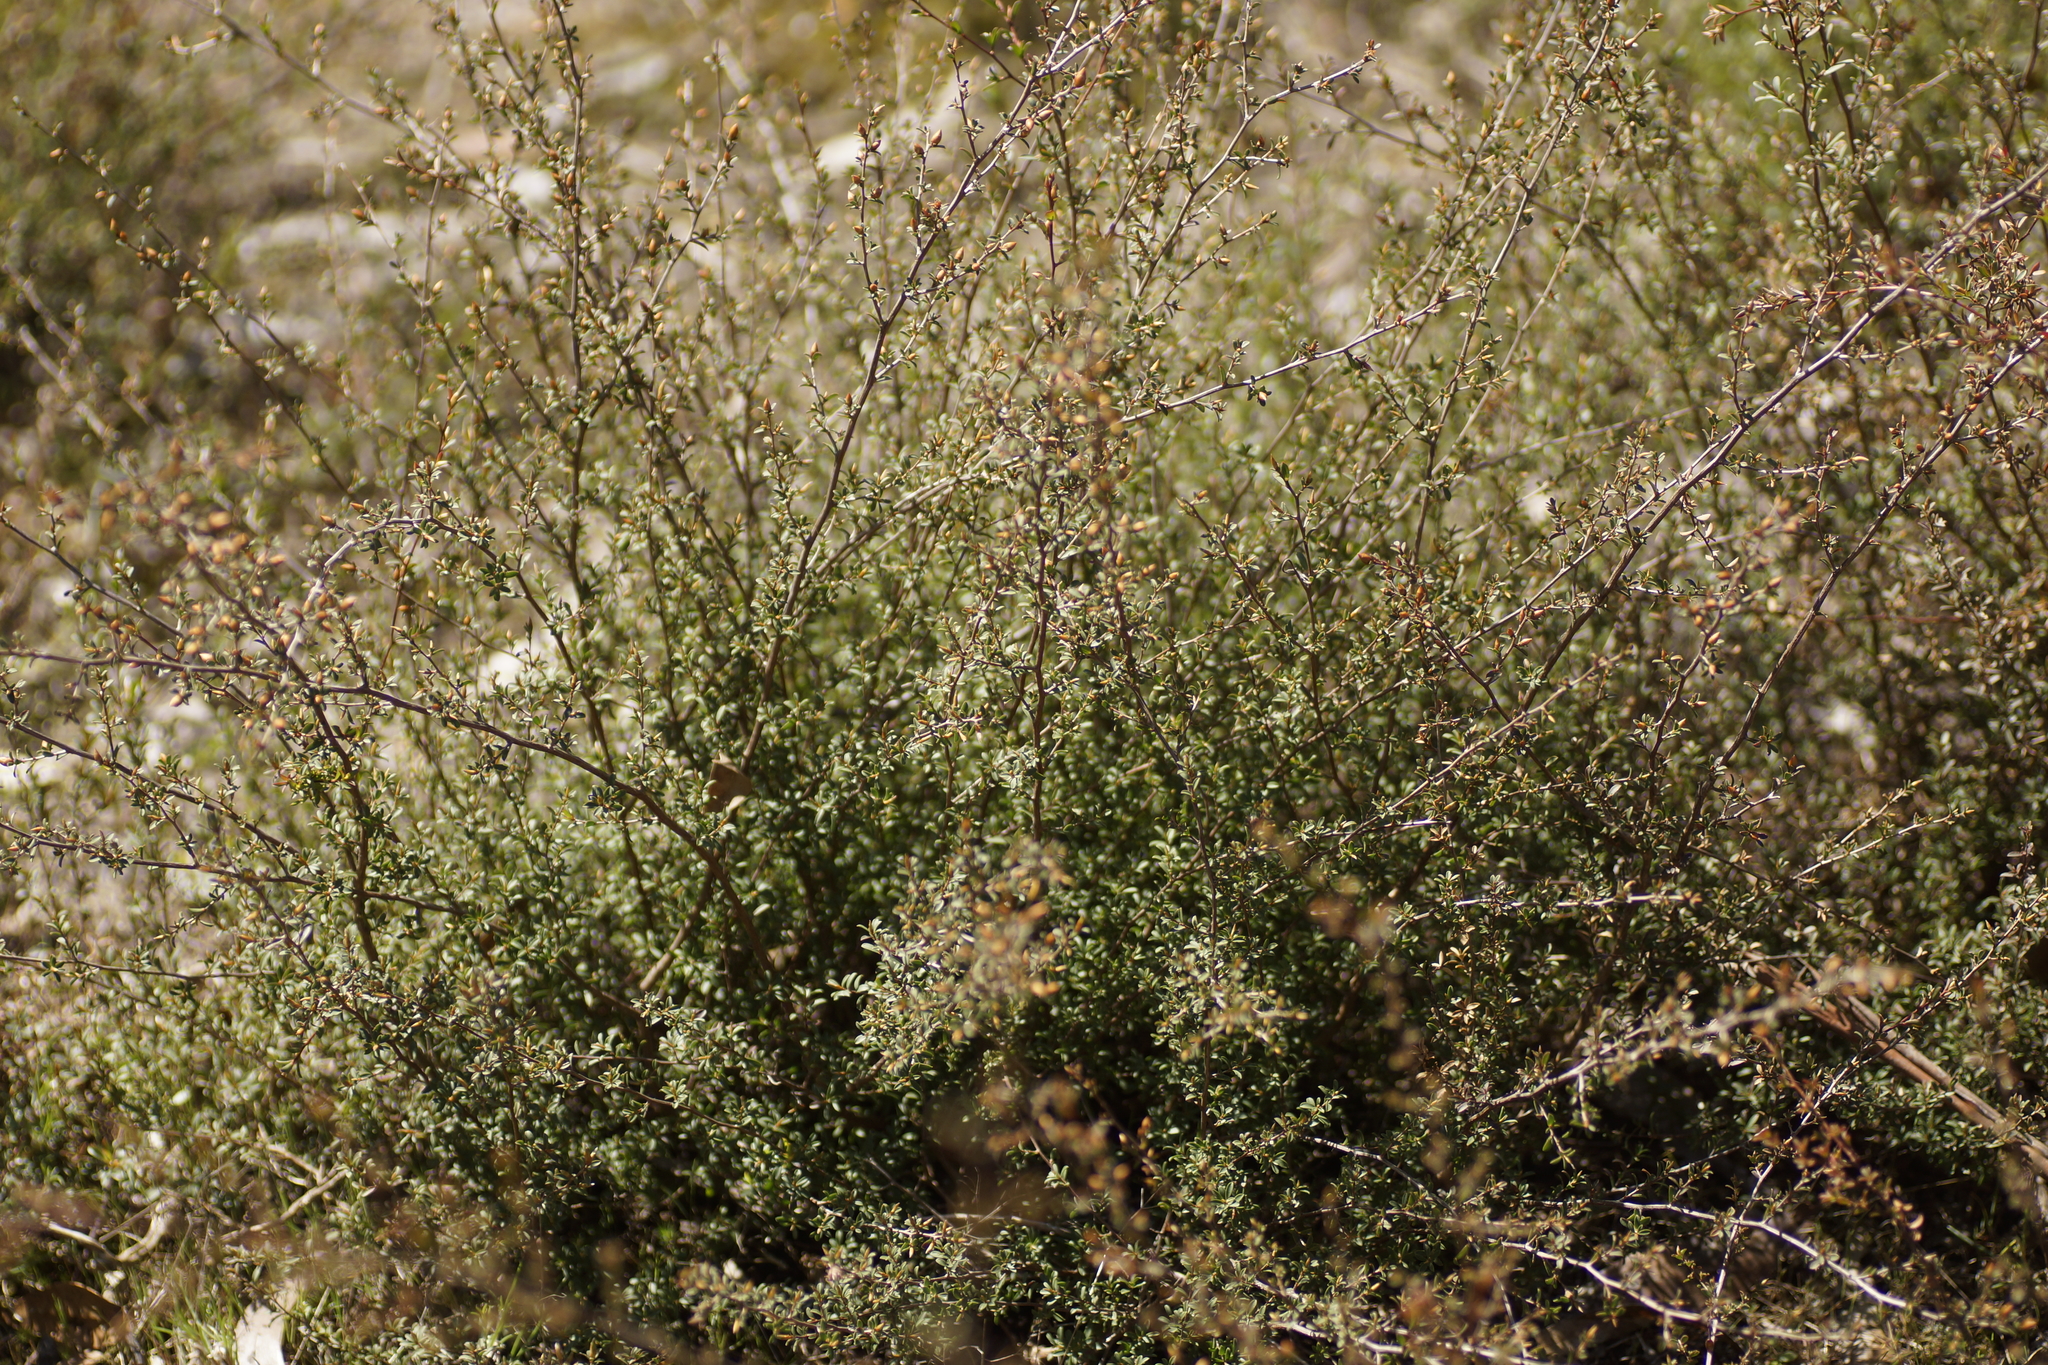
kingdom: Plantae
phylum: Tracheophyta
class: Magnoliopsida
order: Myrtales
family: Myrtaceae
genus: Leptospermum
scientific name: Leptospermum myrsinoides
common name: Heath teatree
